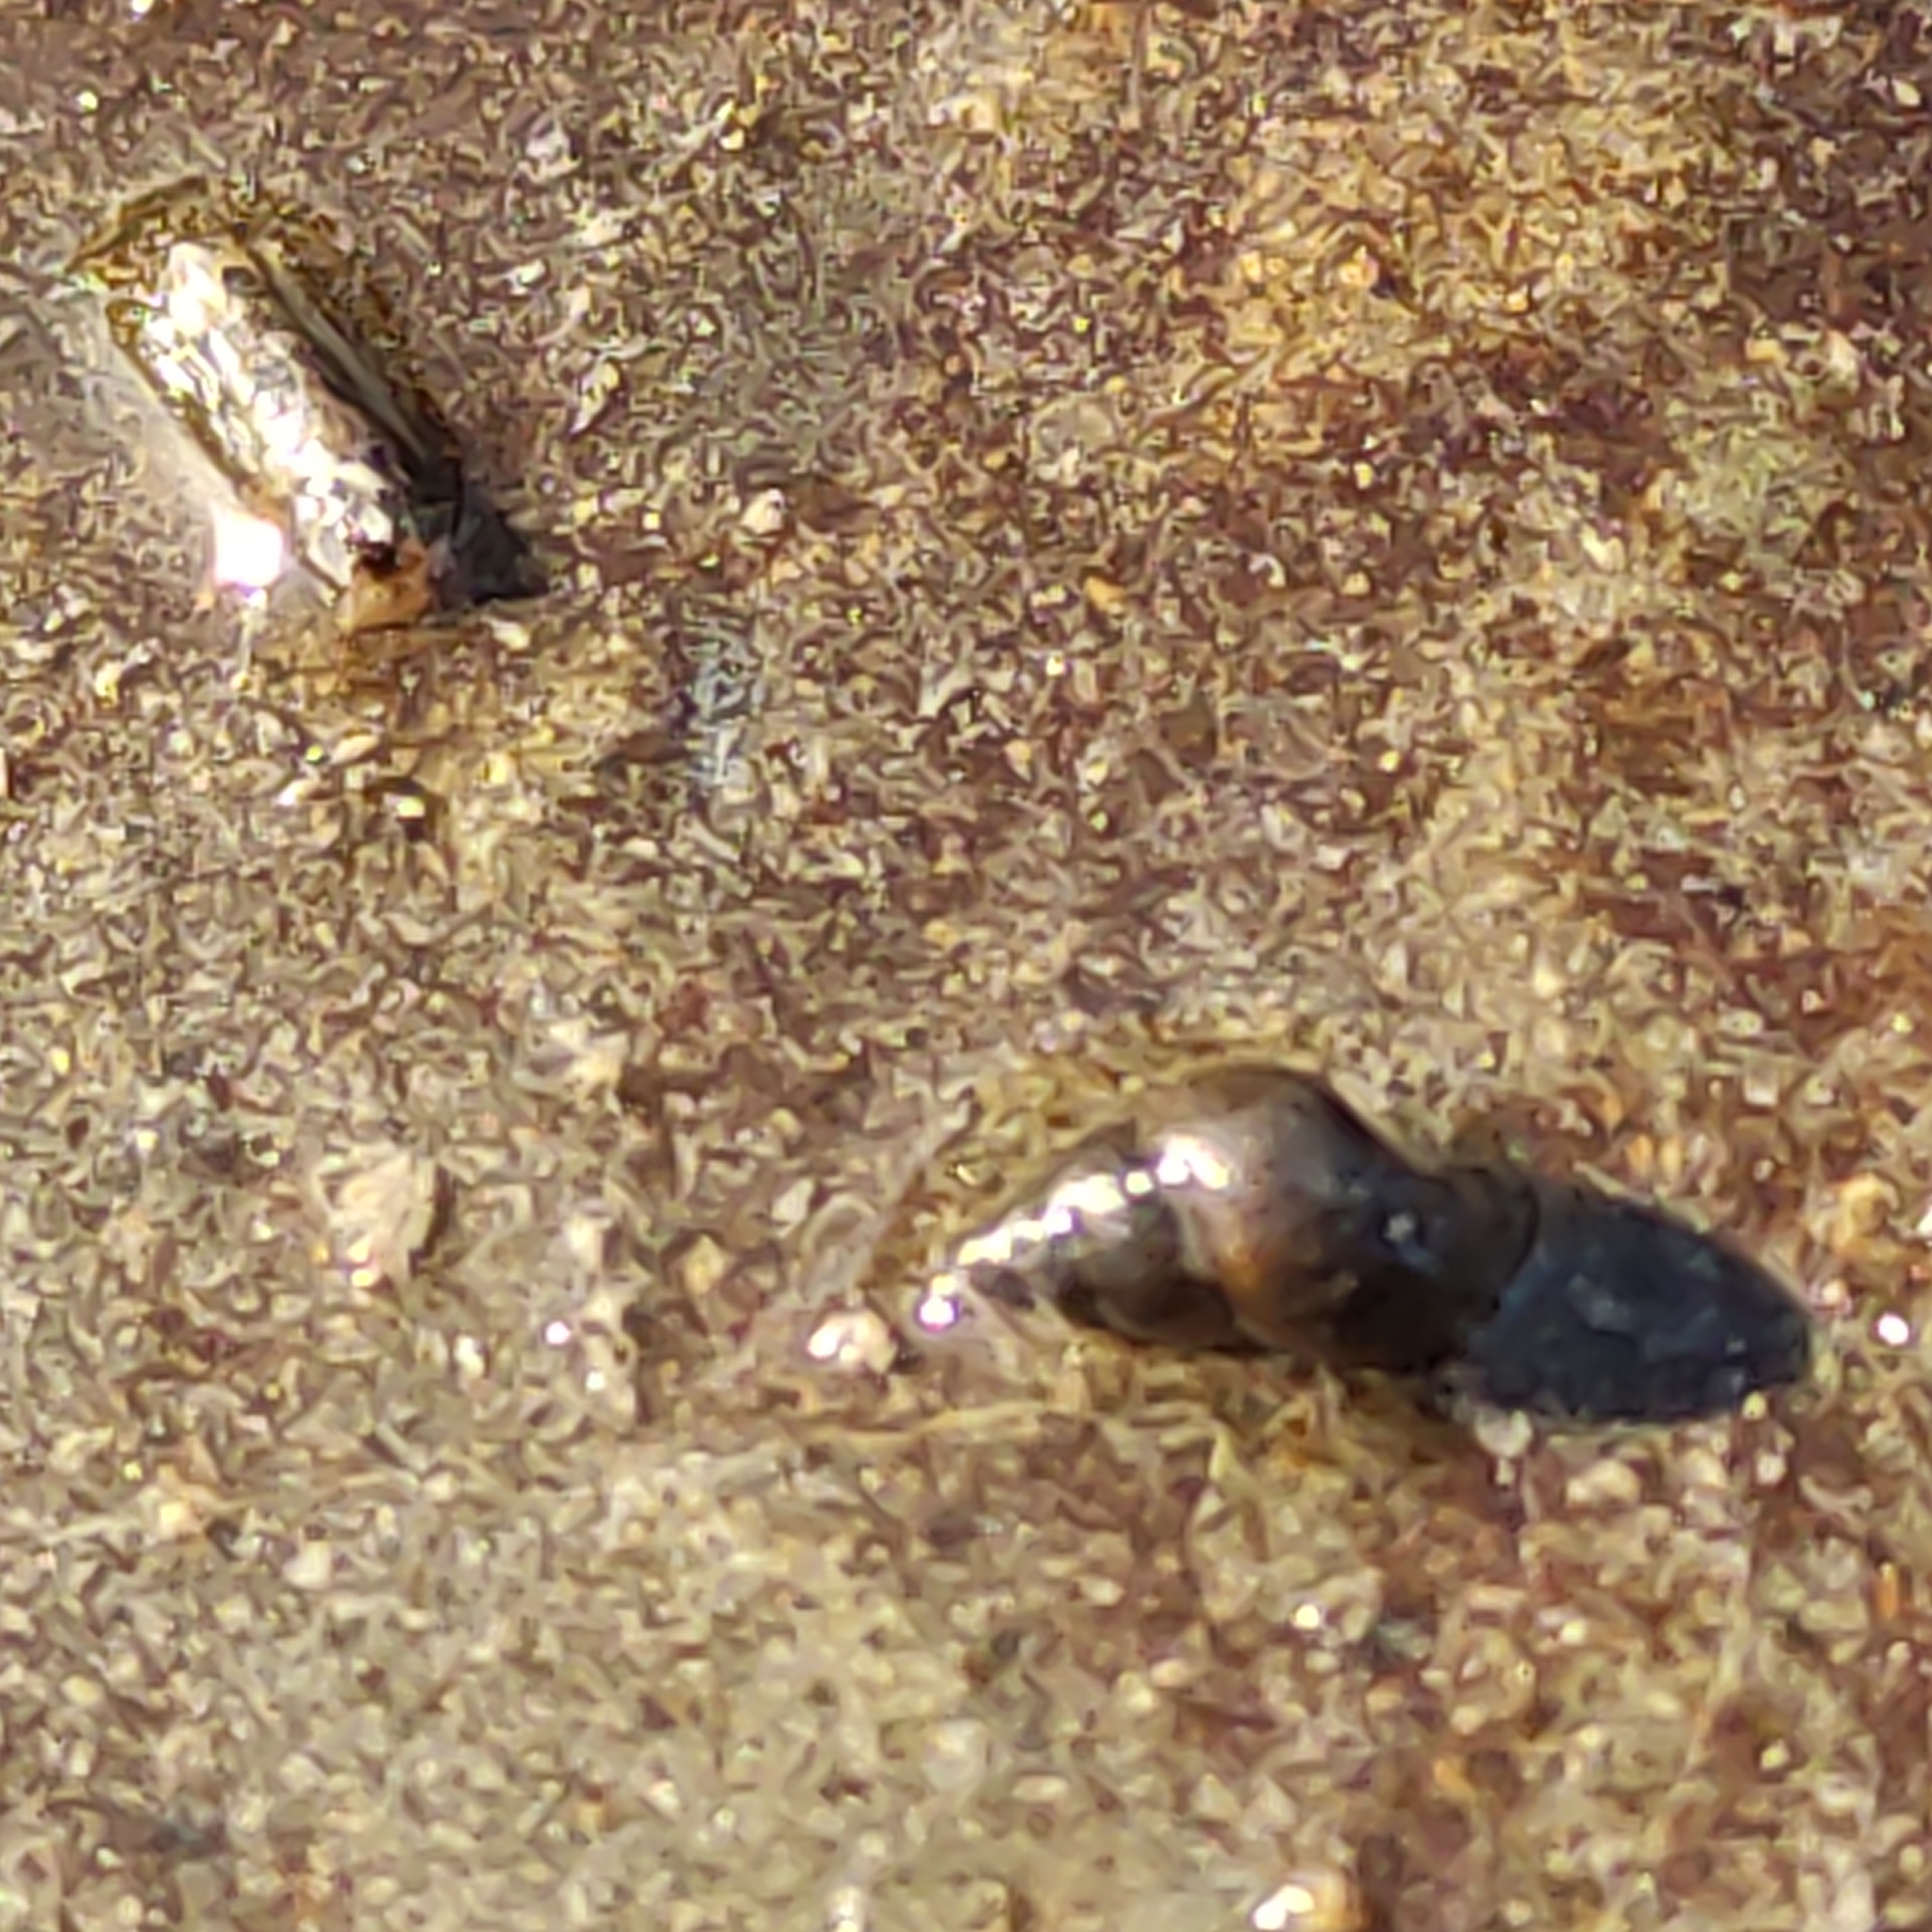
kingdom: Animalia
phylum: Mollusca
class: Gastropoda
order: Littorinimorpha
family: Tateidae
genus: Potamopyrgus
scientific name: Potamopyrgus antipodarum
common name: Jenkins' spire snail
